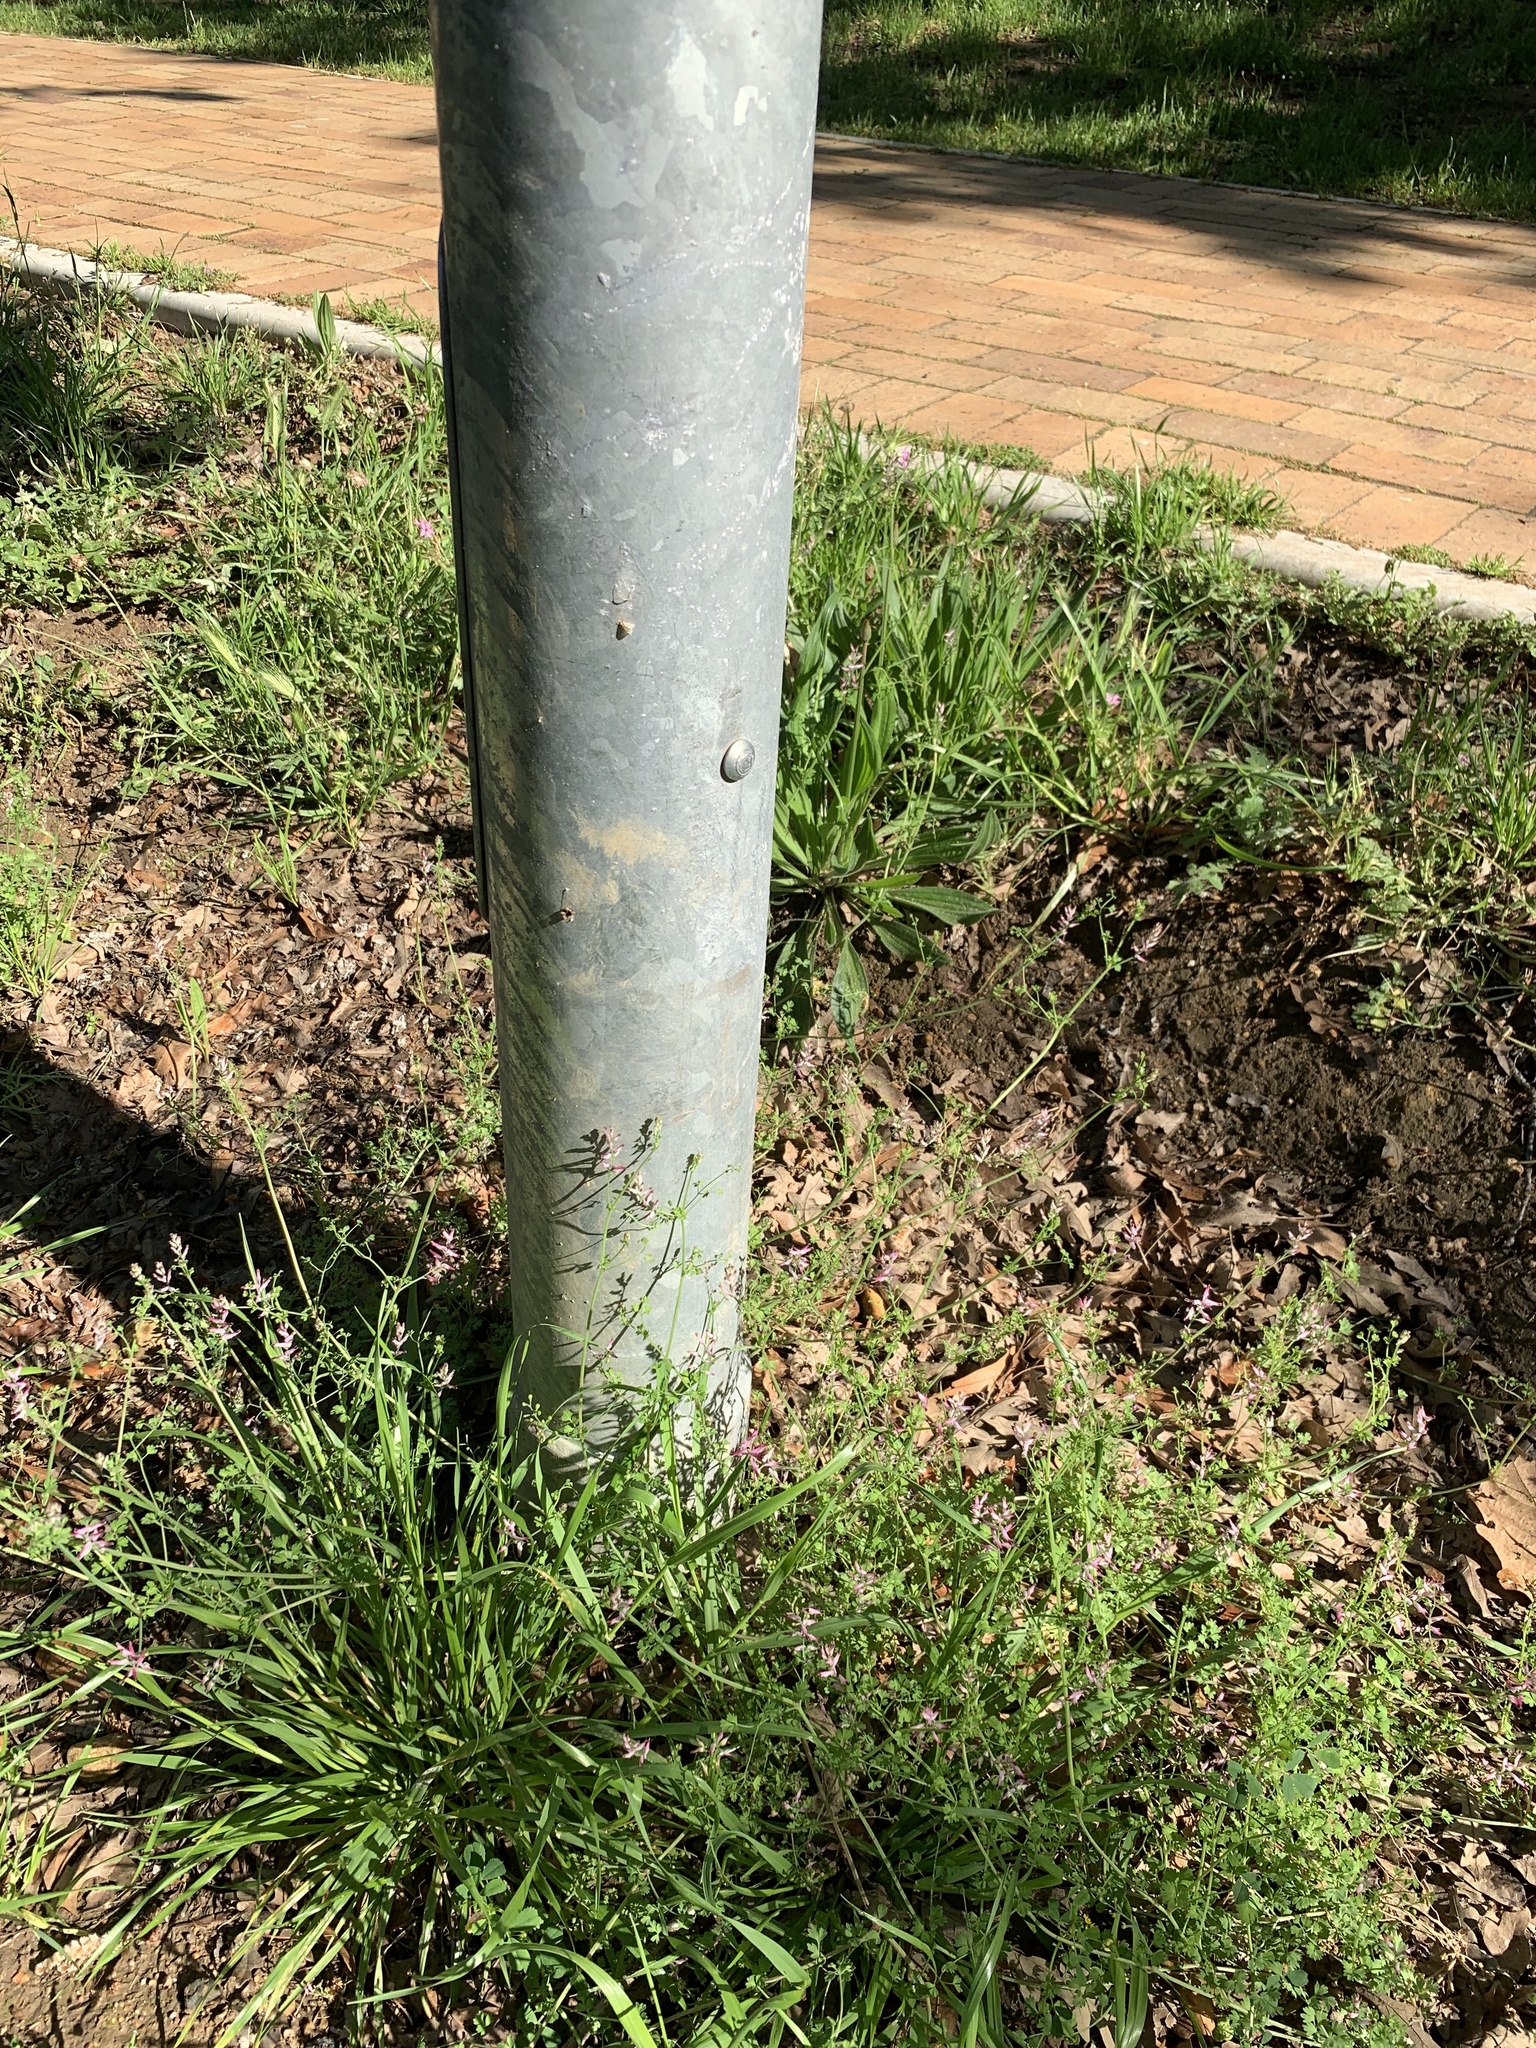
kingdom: Plantae
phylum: Tracheophyta
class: Magnoliopsida
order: Ranunculales
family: Papaveraceae
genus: Fumaria
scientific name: Fumaria muralis
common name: Common ramping-fumitory
